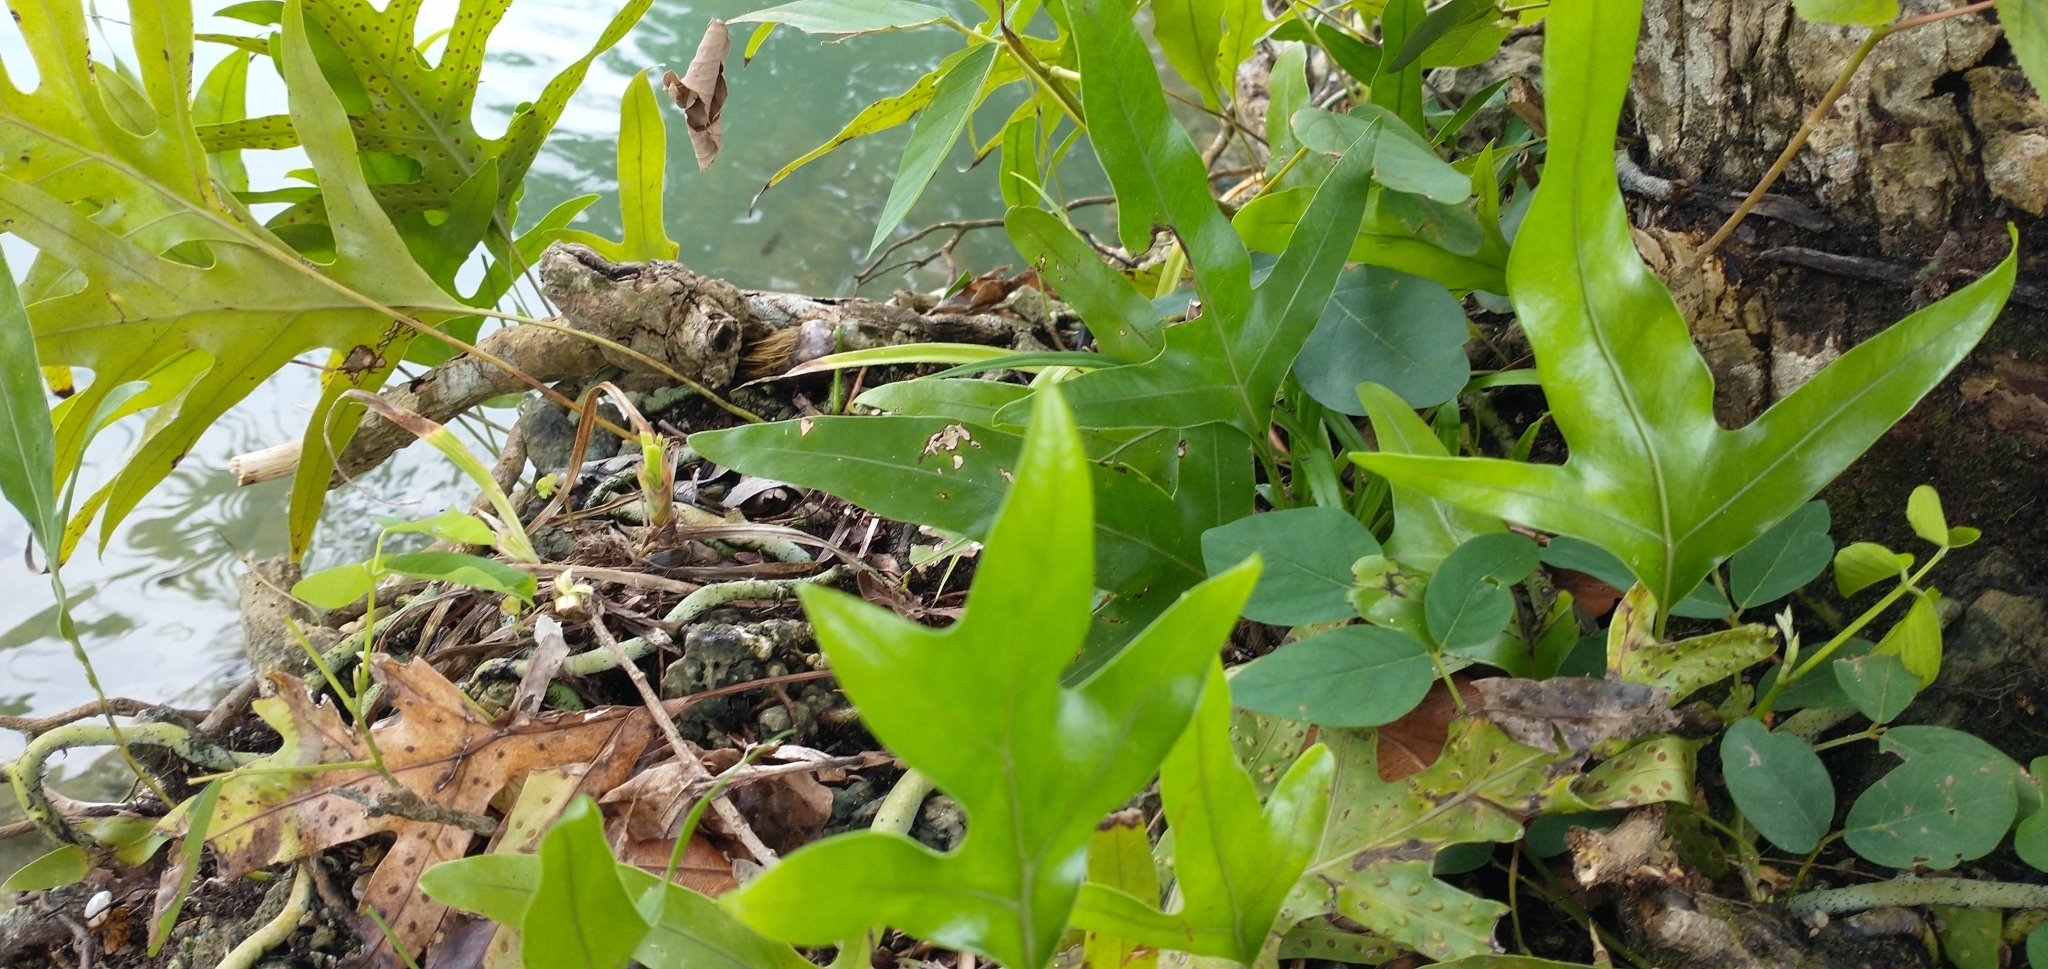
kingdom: Plantae
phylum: Tracheophyta
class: Polypodiopsida
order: Polypodiales
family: Polypodiaceae
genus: Microsorum
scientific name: Microsorum scolopendria
